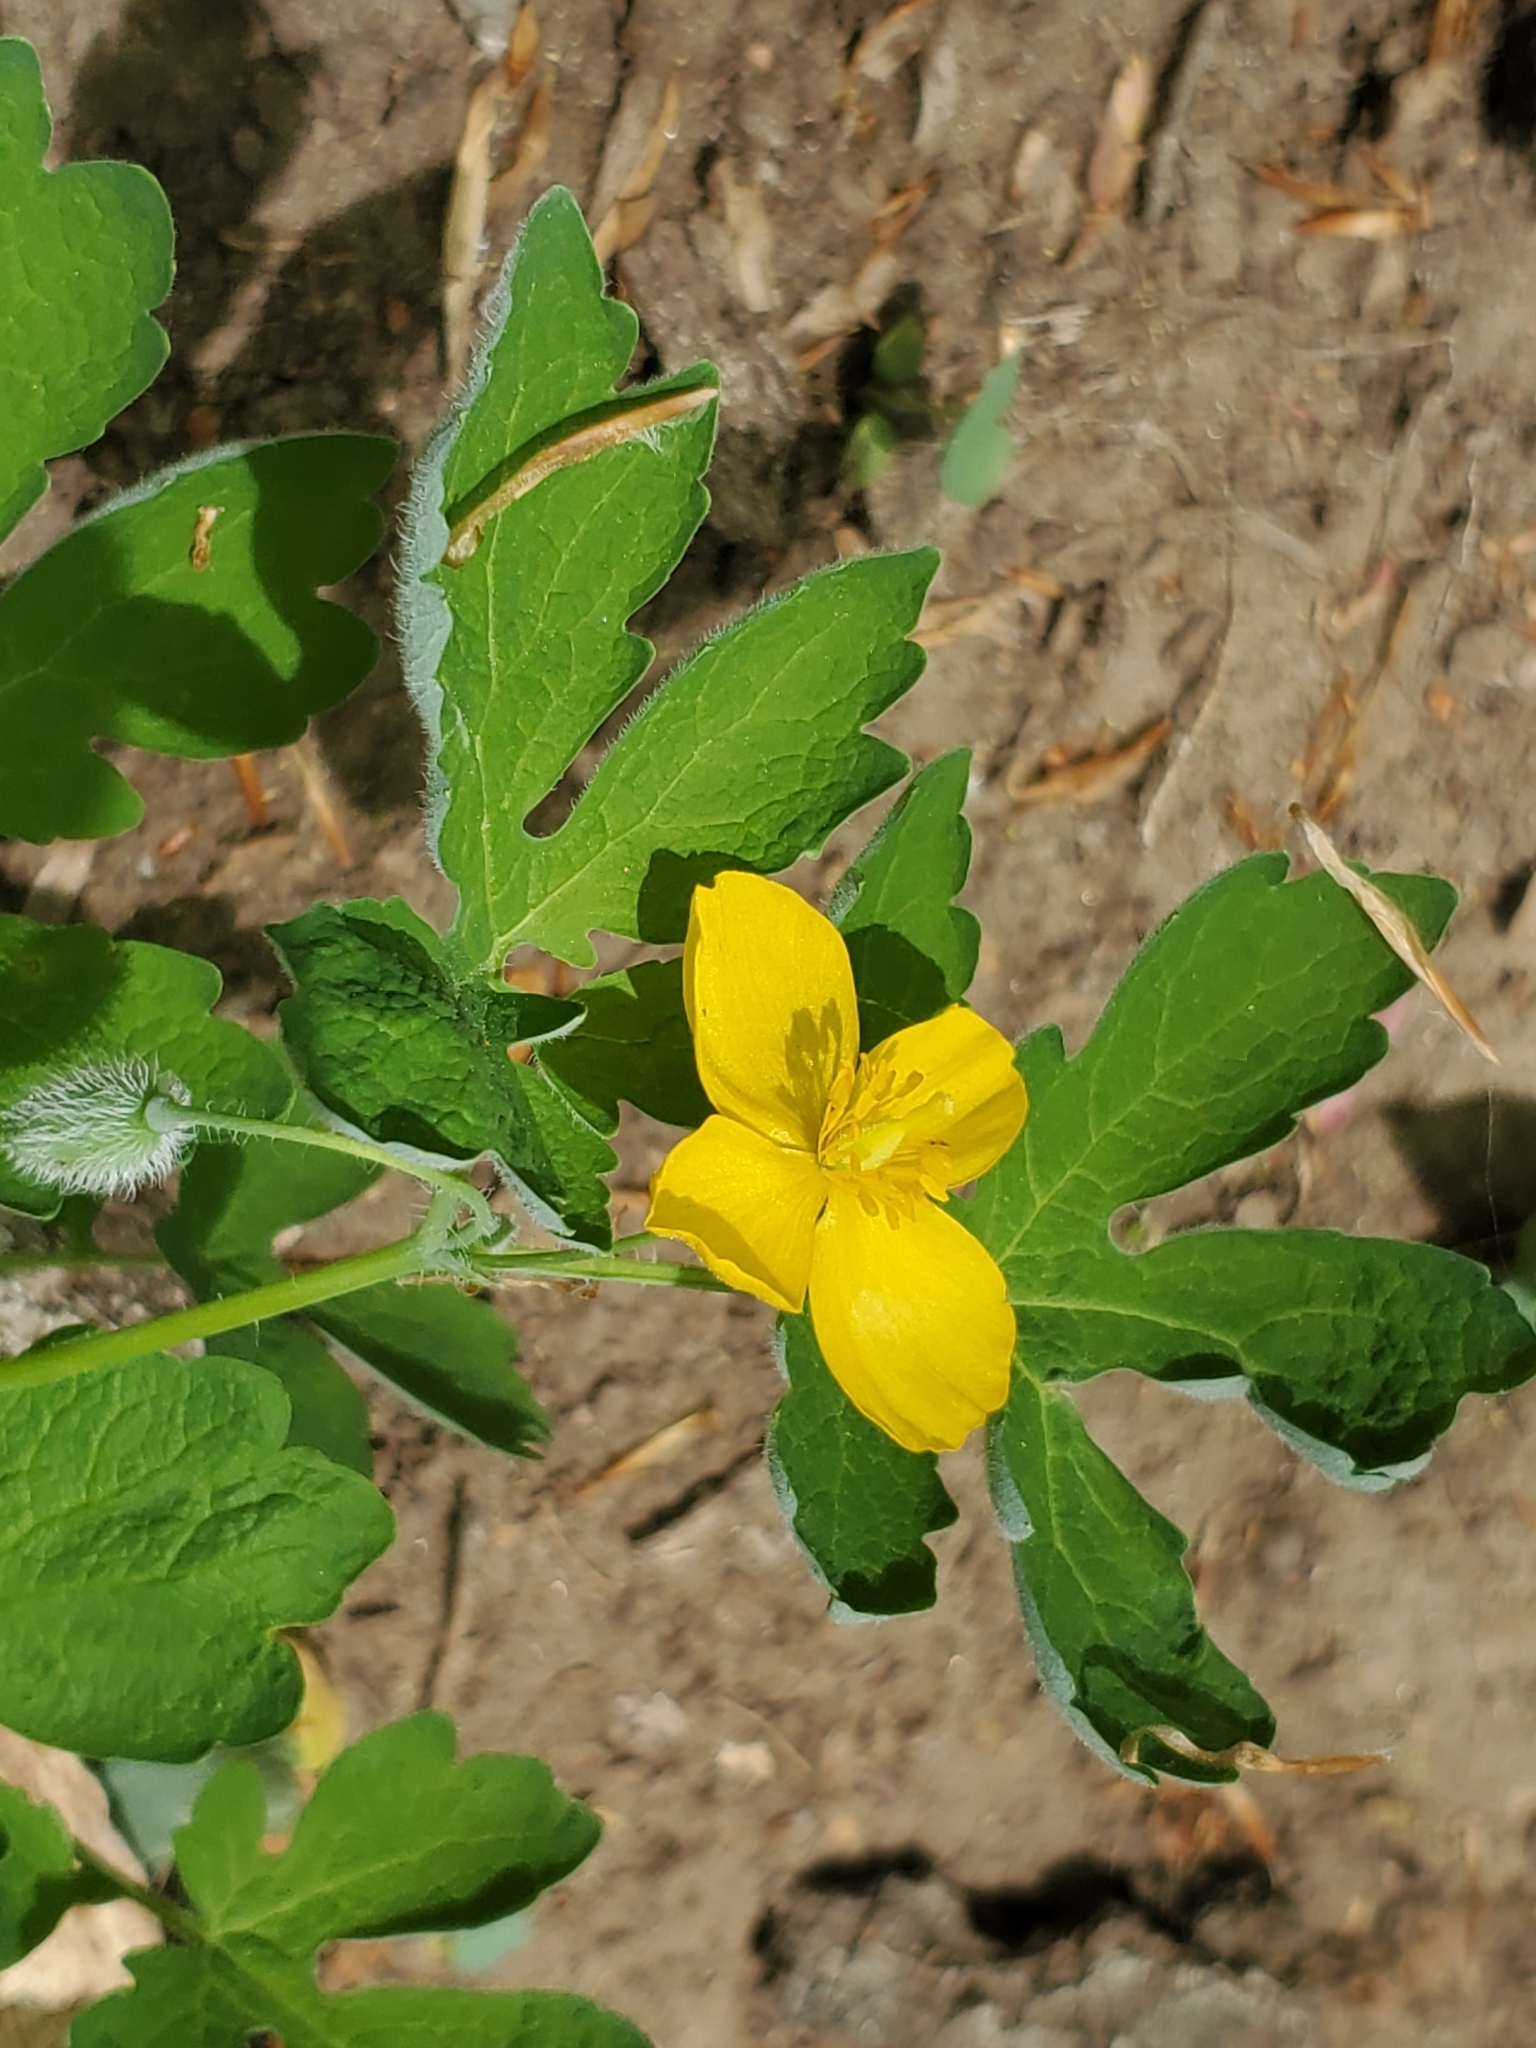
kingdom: Plantae
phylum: Tracheophyta
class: Magnoliopsida
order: Ranunculales
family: Papaveraceae
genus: Stylophorum
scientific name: Stylophorum diphyllum
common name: Celandine poppy
